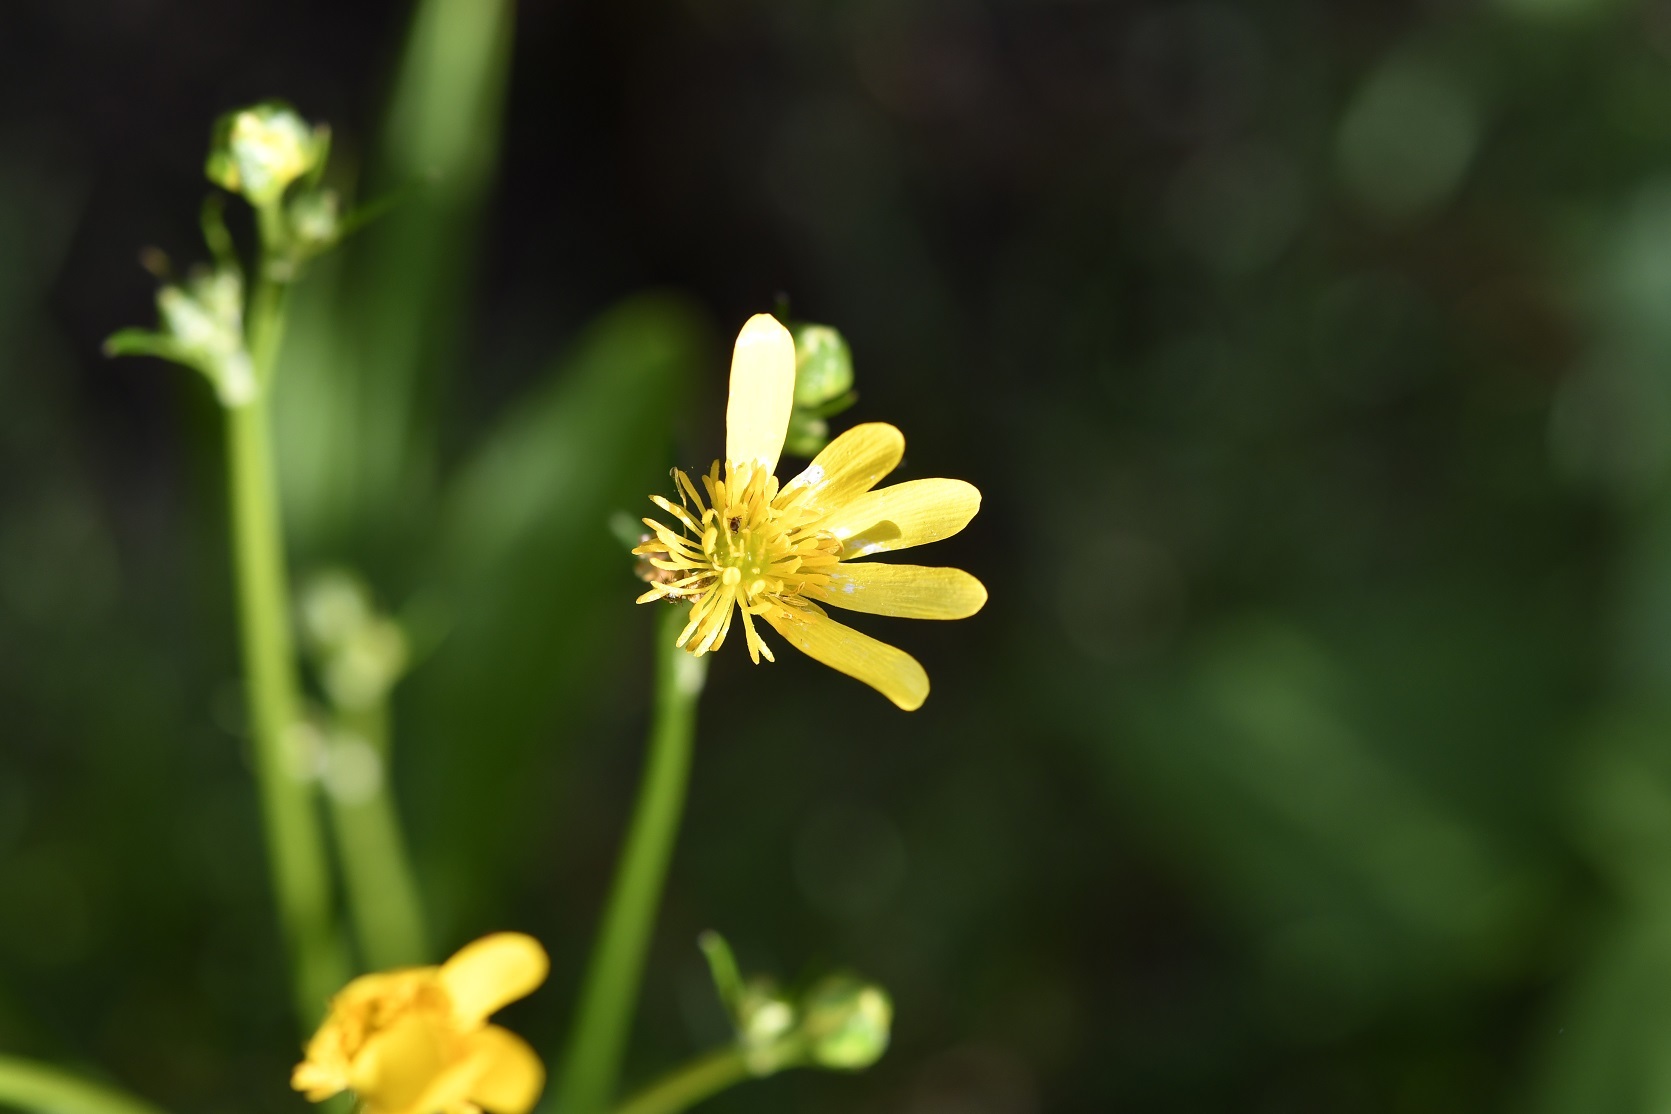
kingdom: Plantae
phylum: Tracheophyta
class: Magnoliopsida
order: Ranunculales
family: Ranunculaceae
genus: Ranunculus
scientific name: Ranunculus petiolaris
